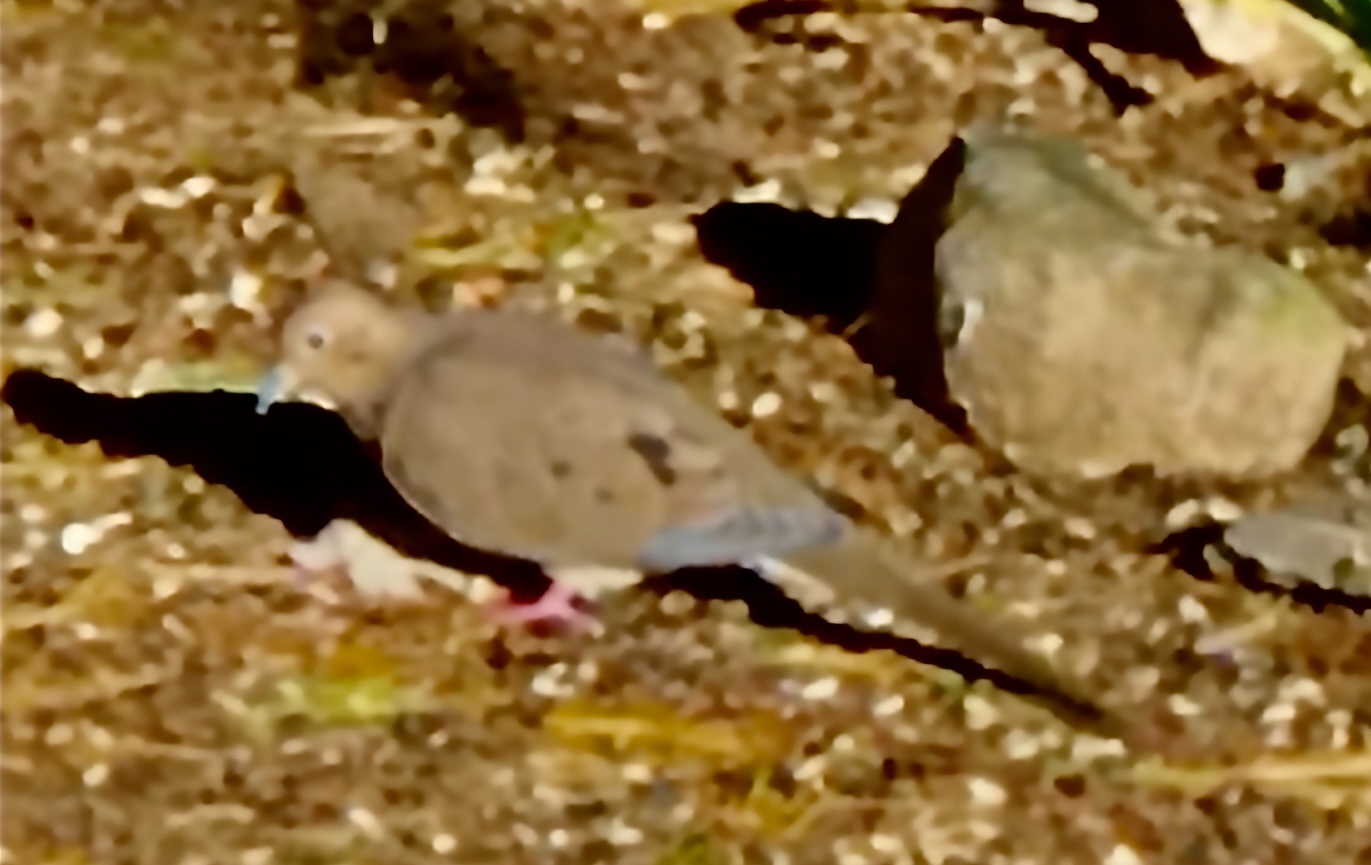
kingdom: Animalia
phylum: Chordata
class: Aves
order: Columbiformes
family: Columbidae
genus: Zenaida
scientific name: Zenaida macroura
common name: Mourning dove
